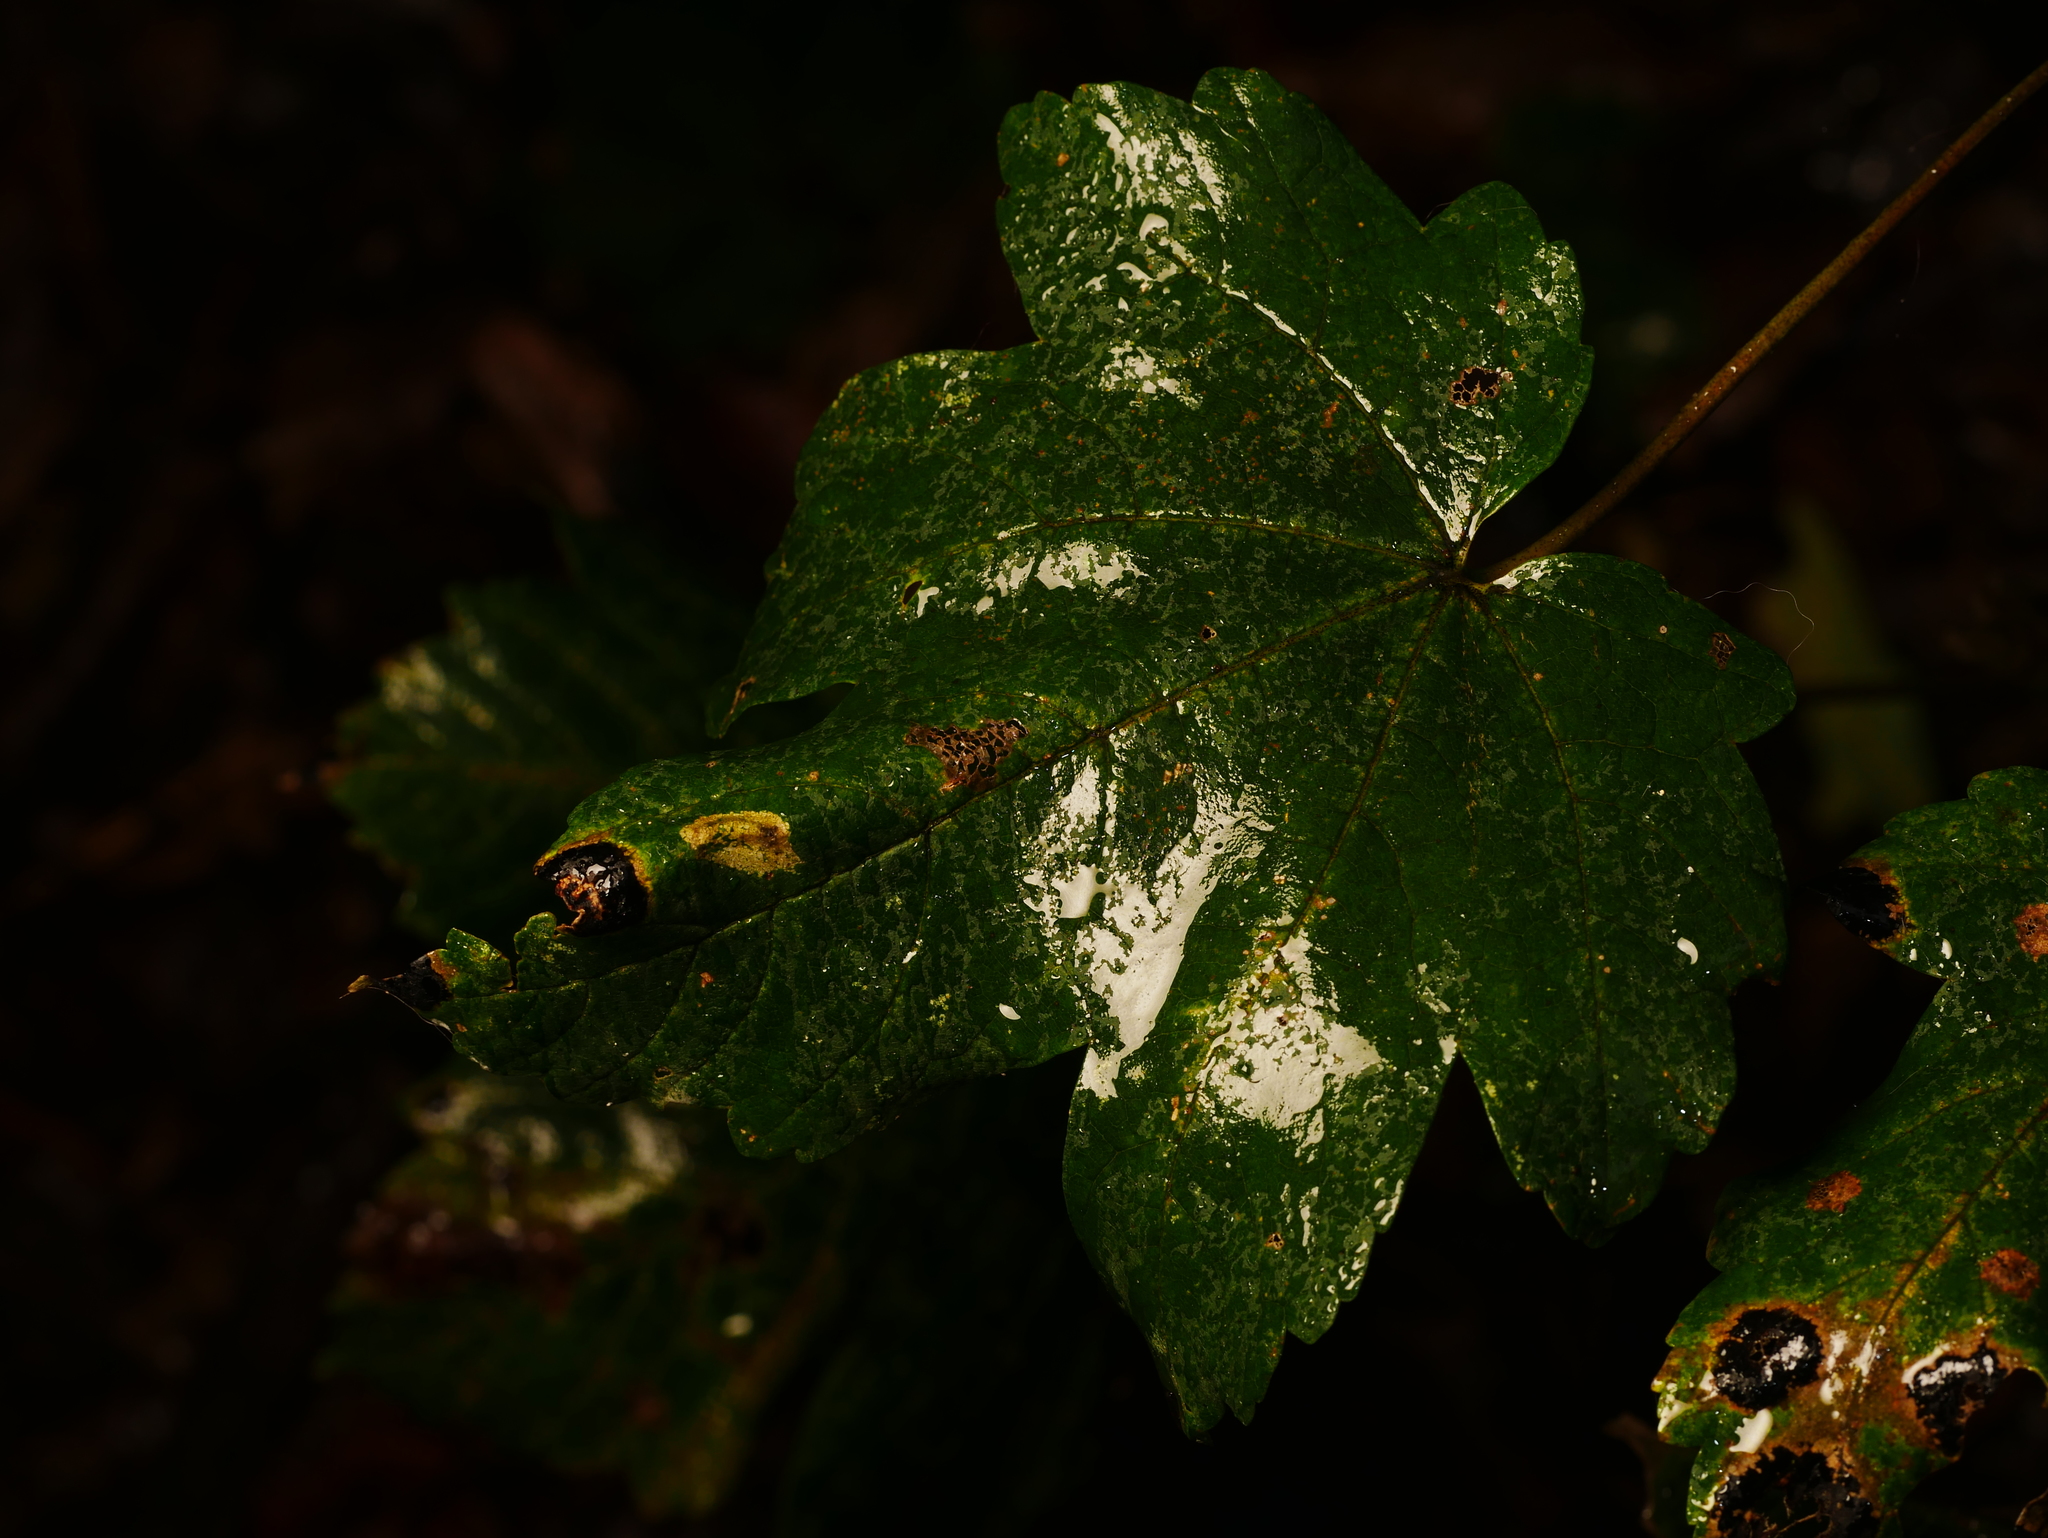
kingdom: Plantae
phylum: Tracheophyta
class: Magnoliopsida
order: Sapindales
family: Sapindaceae
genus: Acer
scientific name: Acer pseudoplatanus
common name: Sycamore
